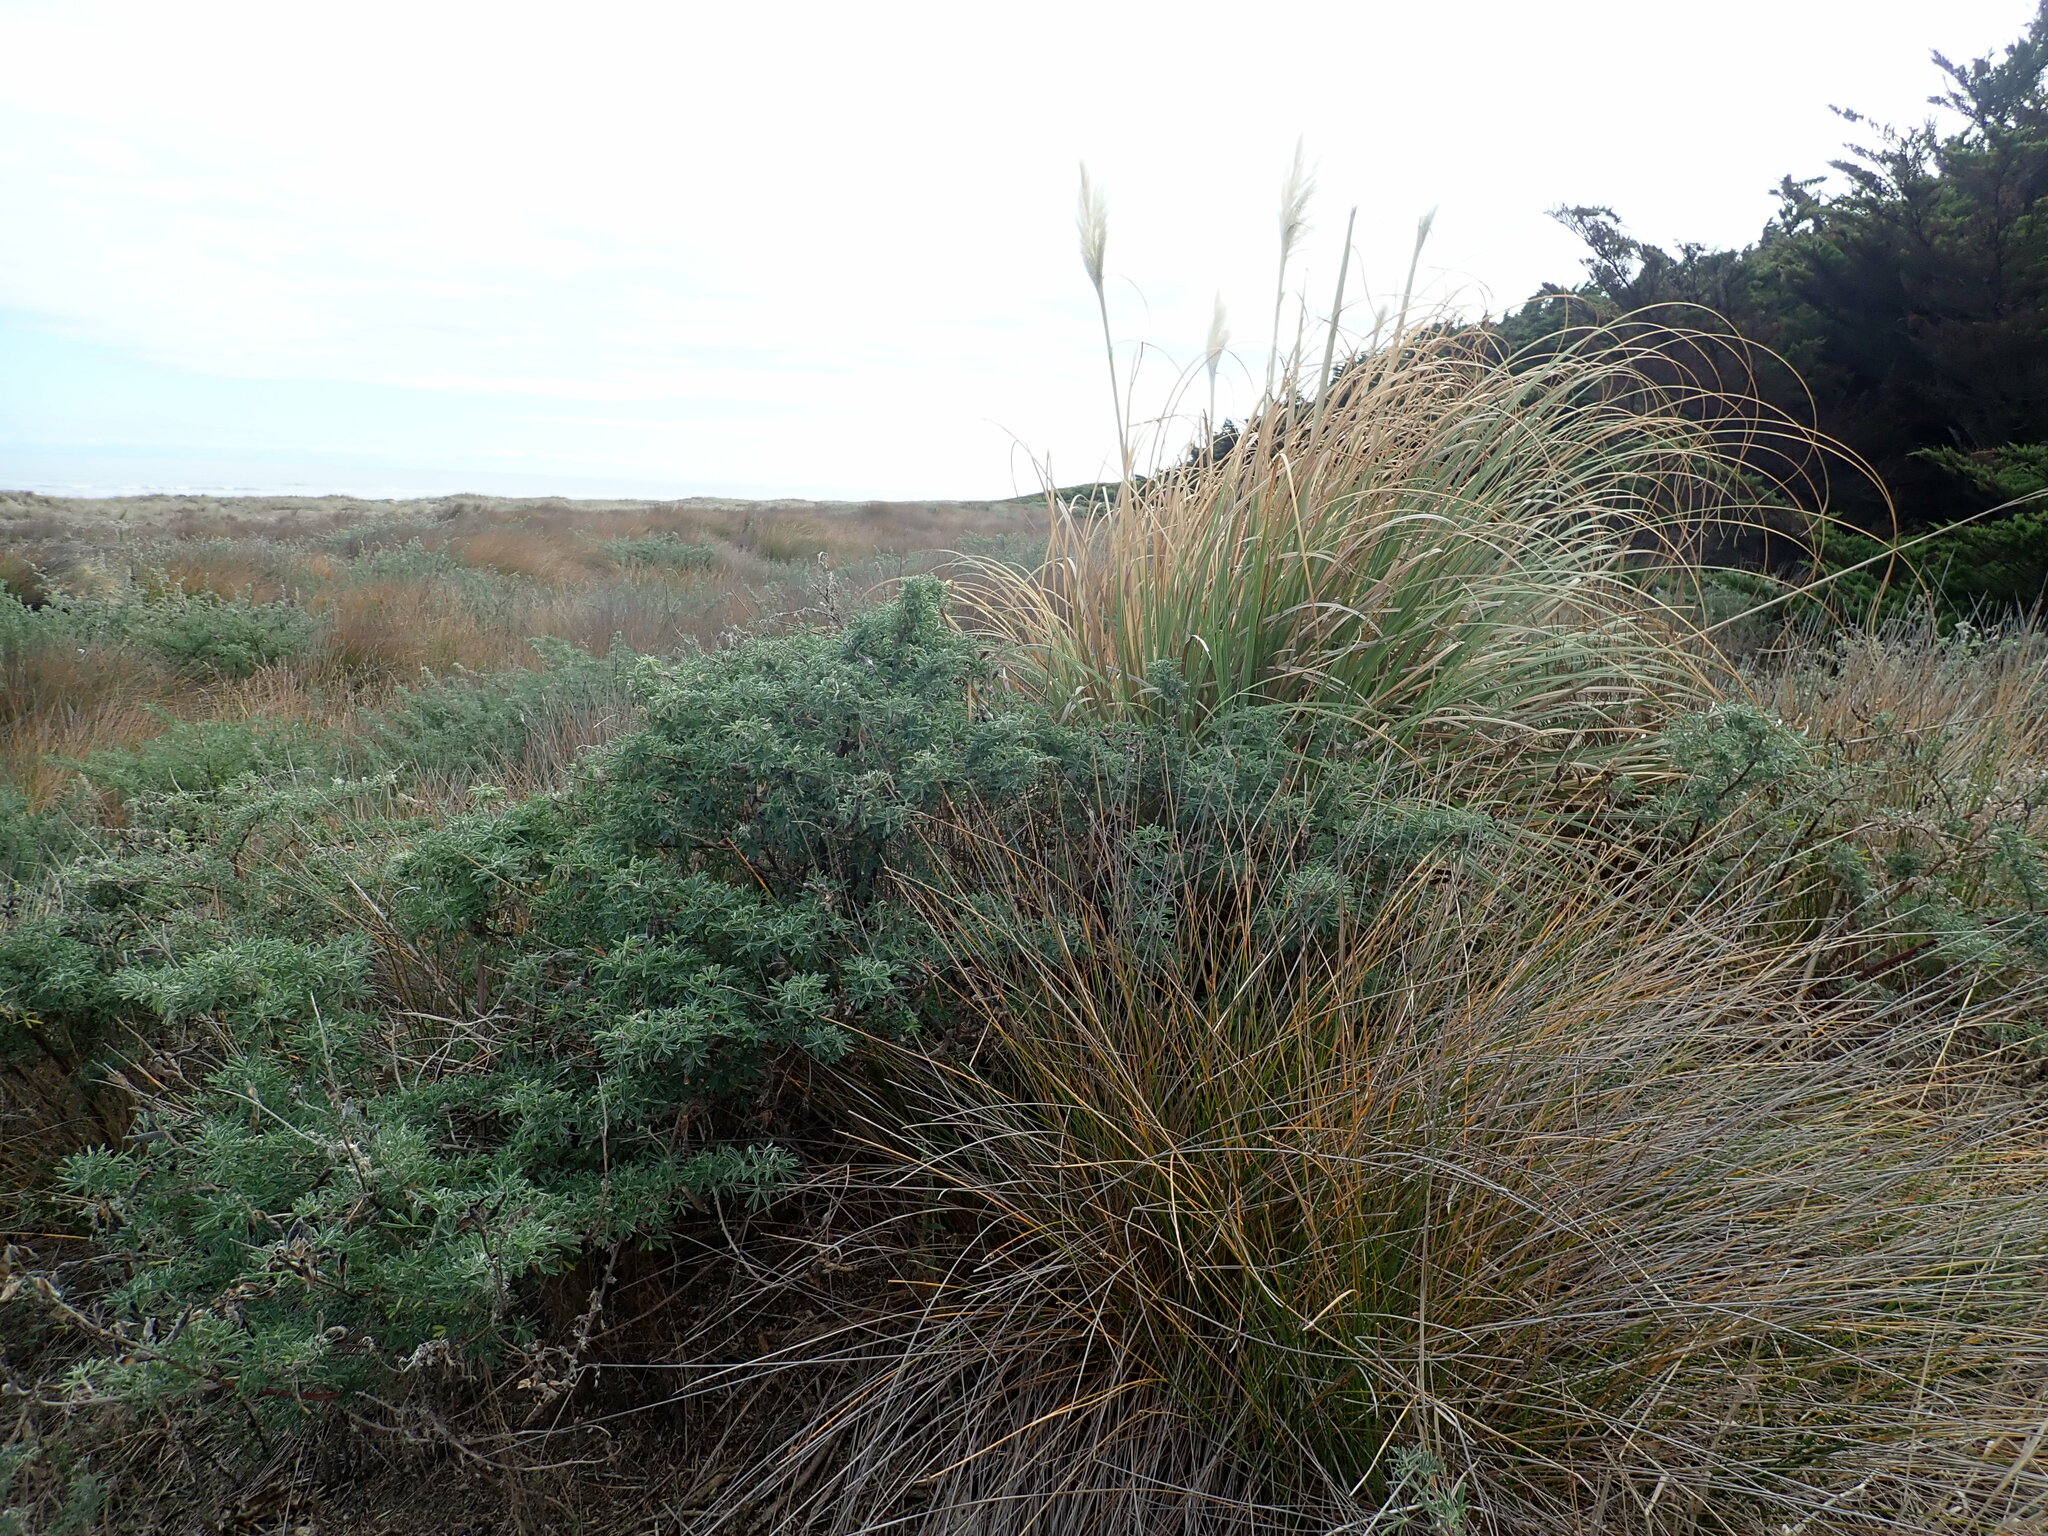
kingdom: Plantae
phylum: Tracheophyta
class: Liliopsida
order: Poales
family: Poaceae
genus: Cortaderia
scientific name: Cortaderia selloana
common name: Uruguayan pampas grass
